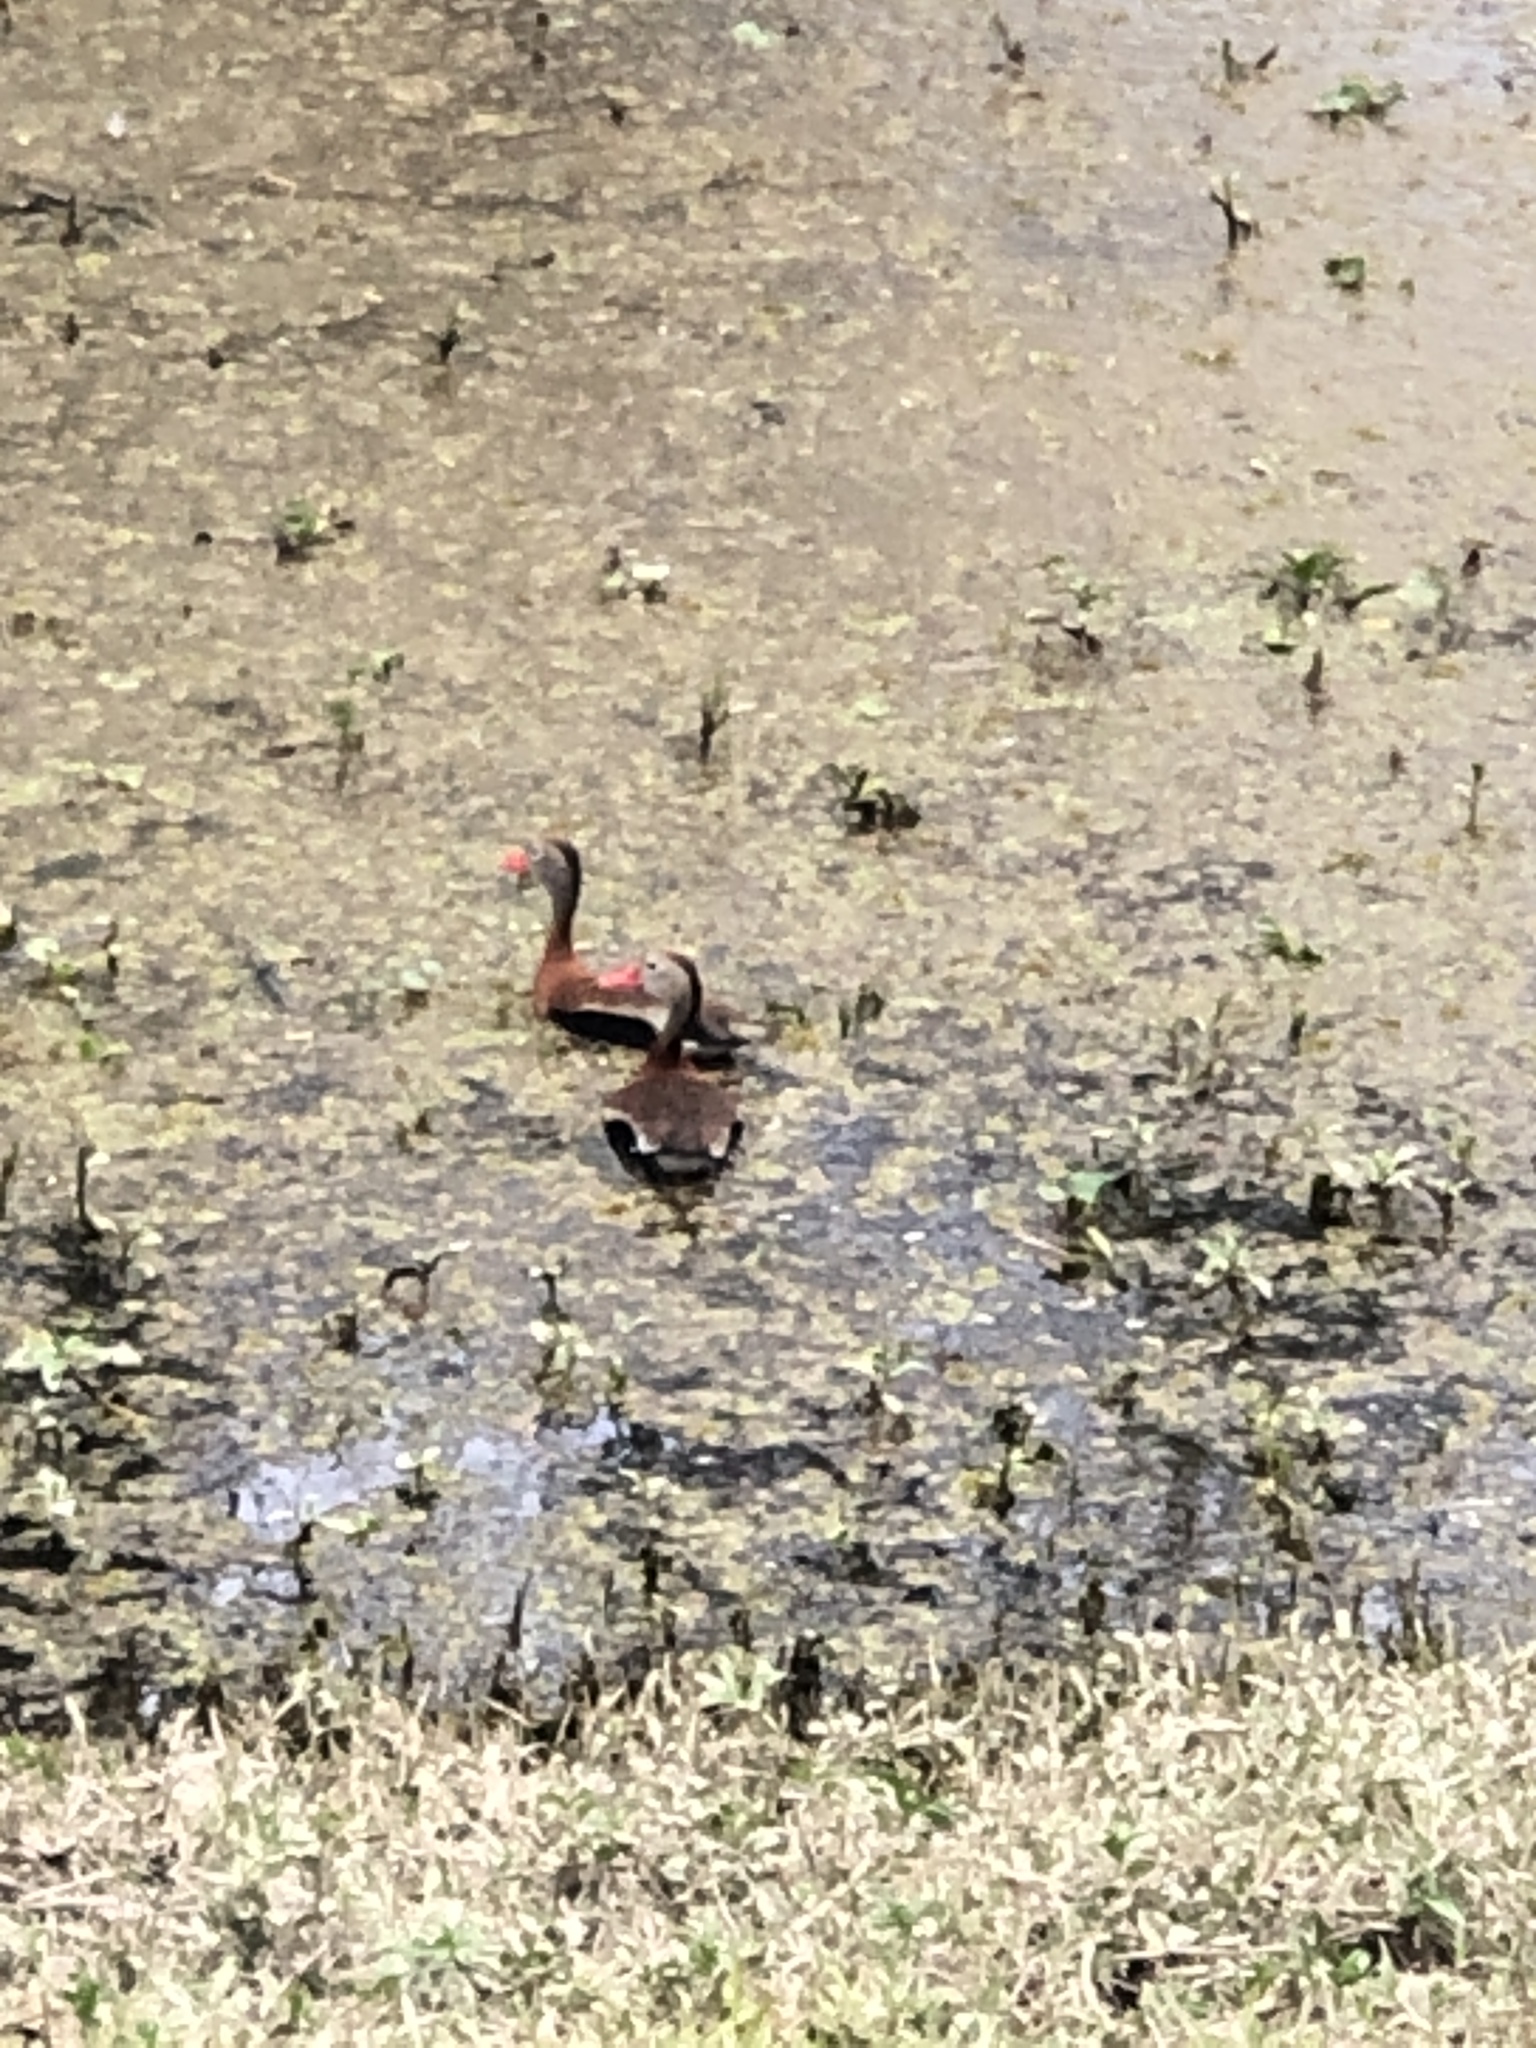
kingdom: Animalia
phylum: Chordata
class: Aves
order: Anseriformes
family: Anatidae
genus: Dendrocygna
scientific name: Dendrocygna autumnalis
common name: Black-bellied whistling duck
